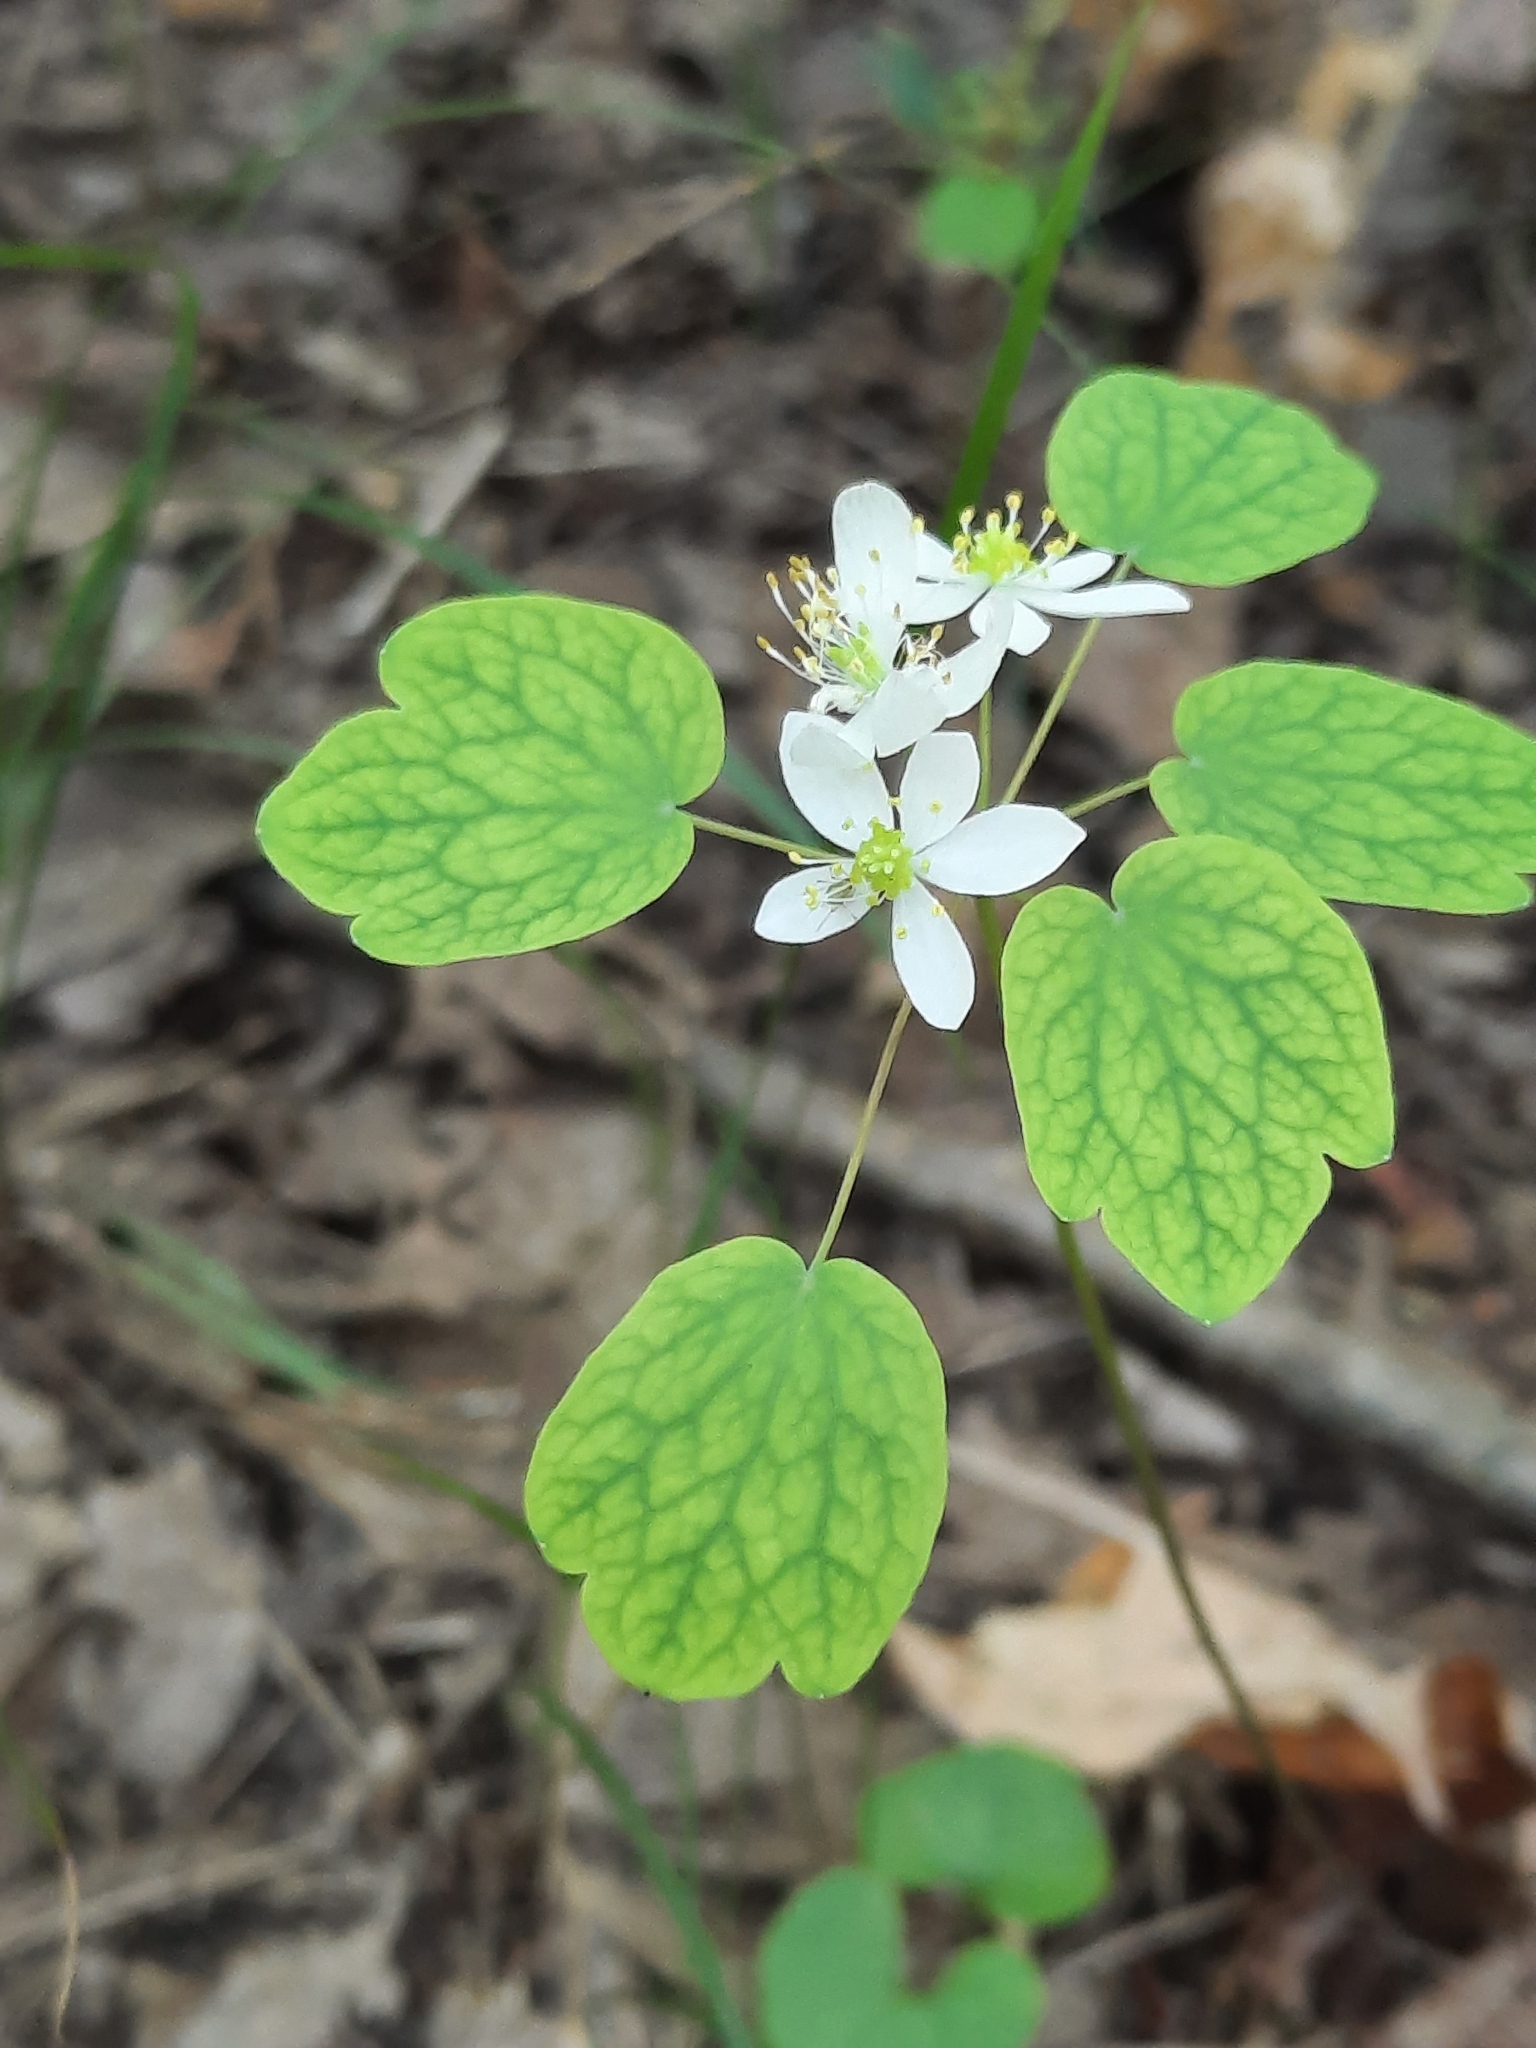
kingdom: Plantae
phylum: Tracheophyta
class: Magnoliopsida
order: Ranunculales
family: Ranunculaceae
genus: Thalictrum
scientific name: Thalictrum thalictroides
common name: Rue-anemone
